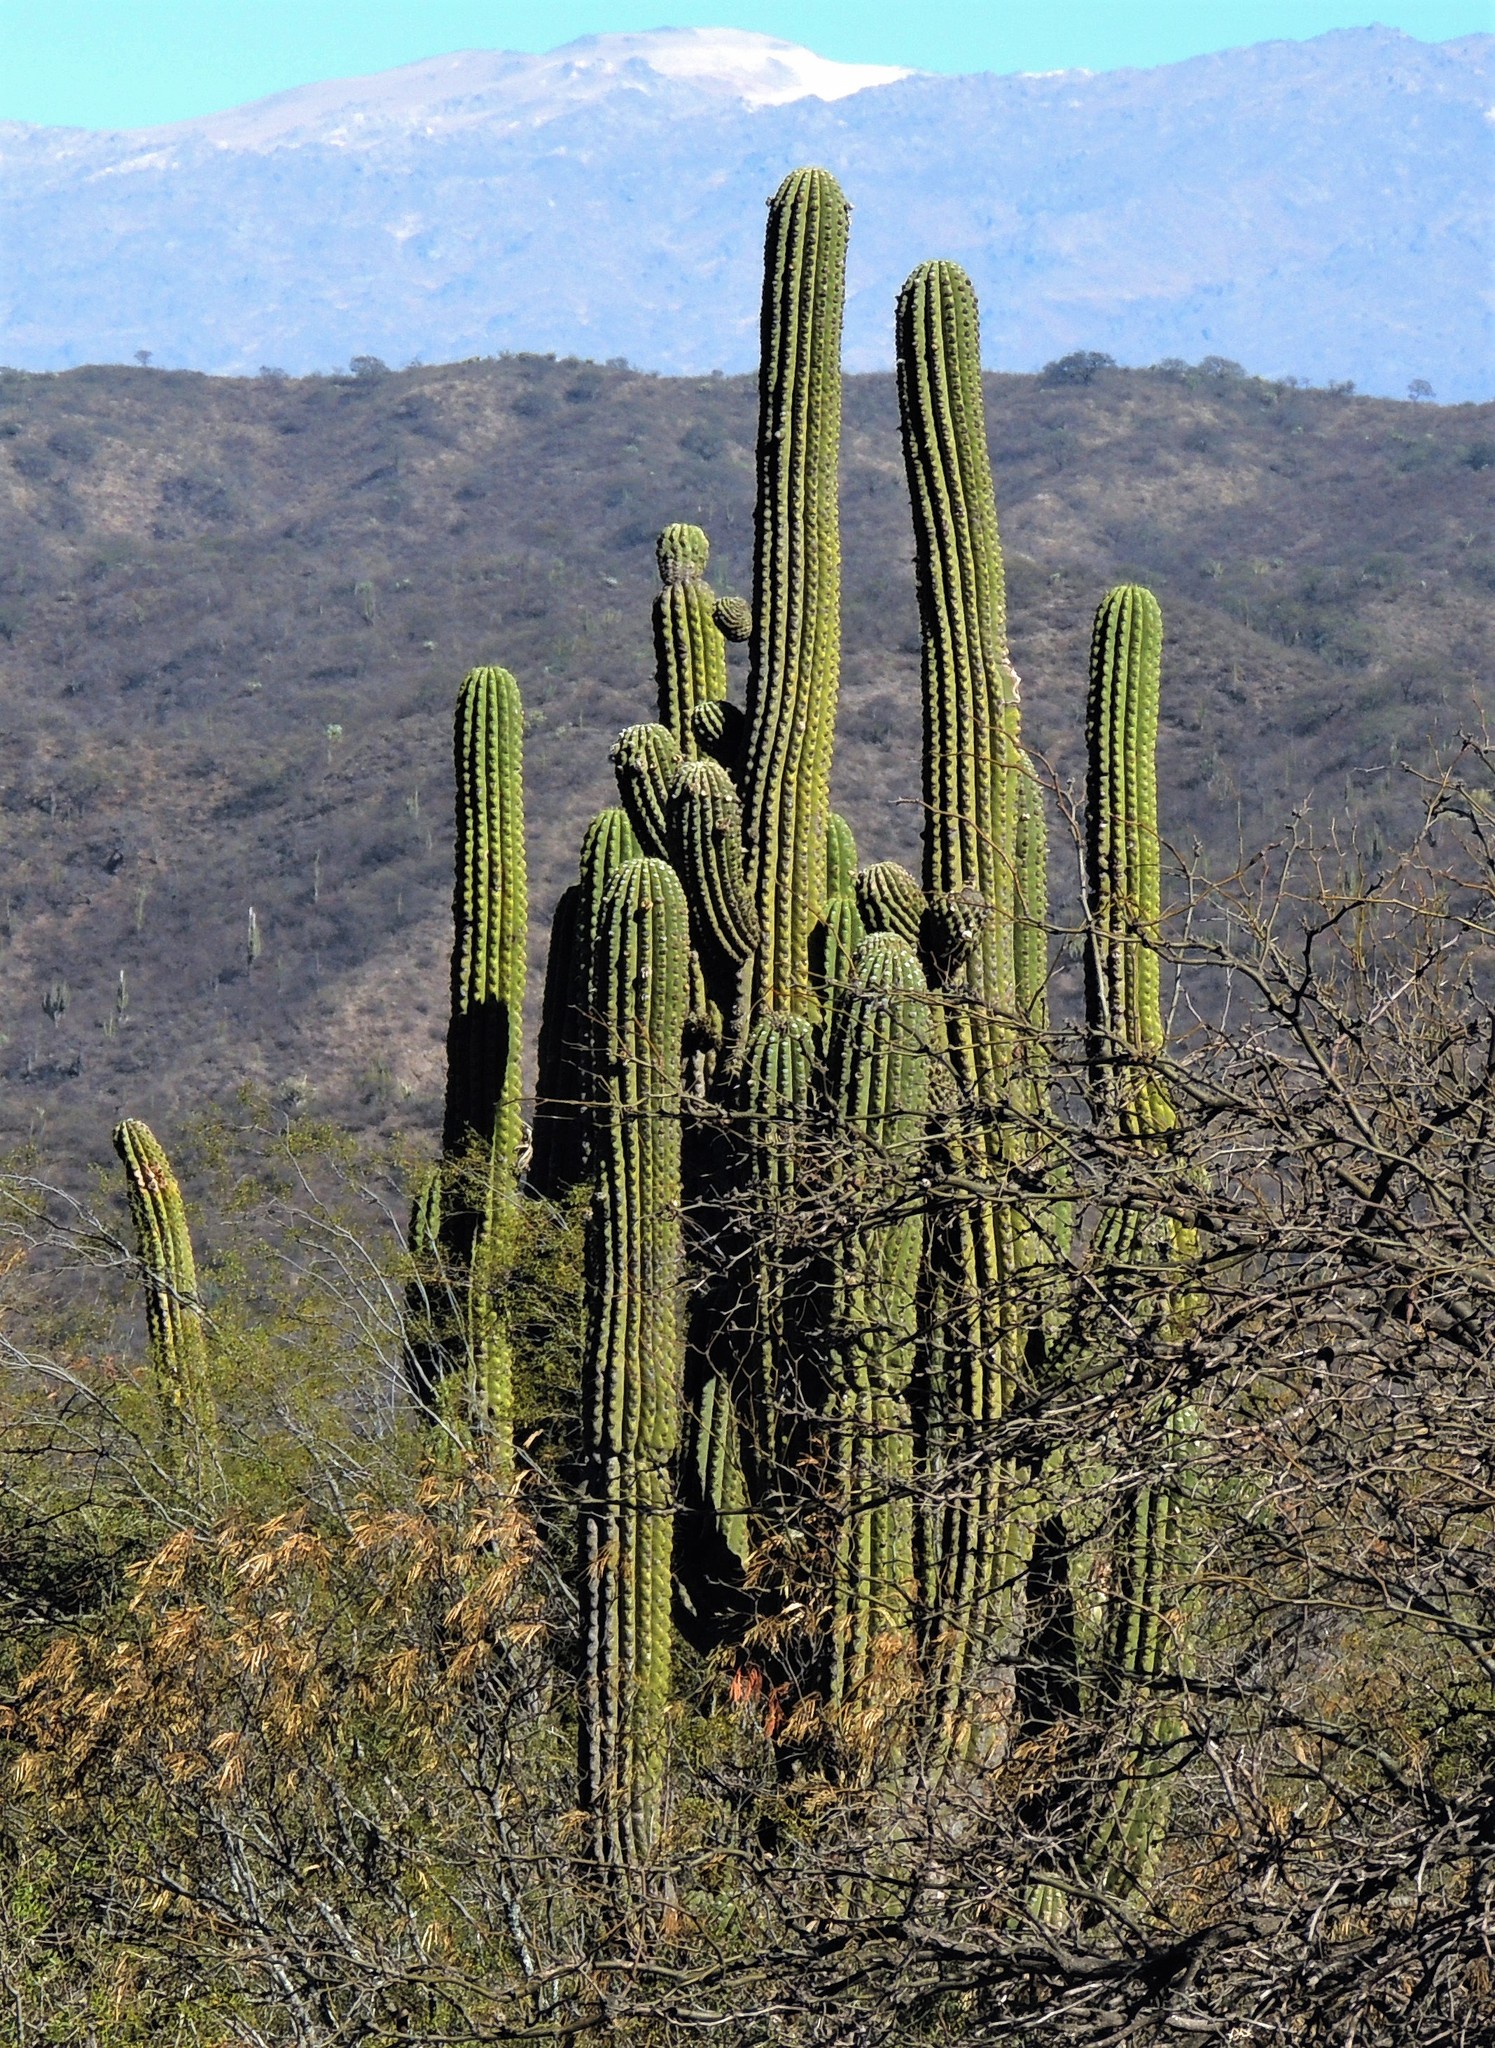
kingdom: Plantae
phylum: Tracheophyta
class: Magnoliopsida
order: Caryophyllales
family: Cactaceae
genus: Leucostele
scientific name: Leucostele terscheckii
